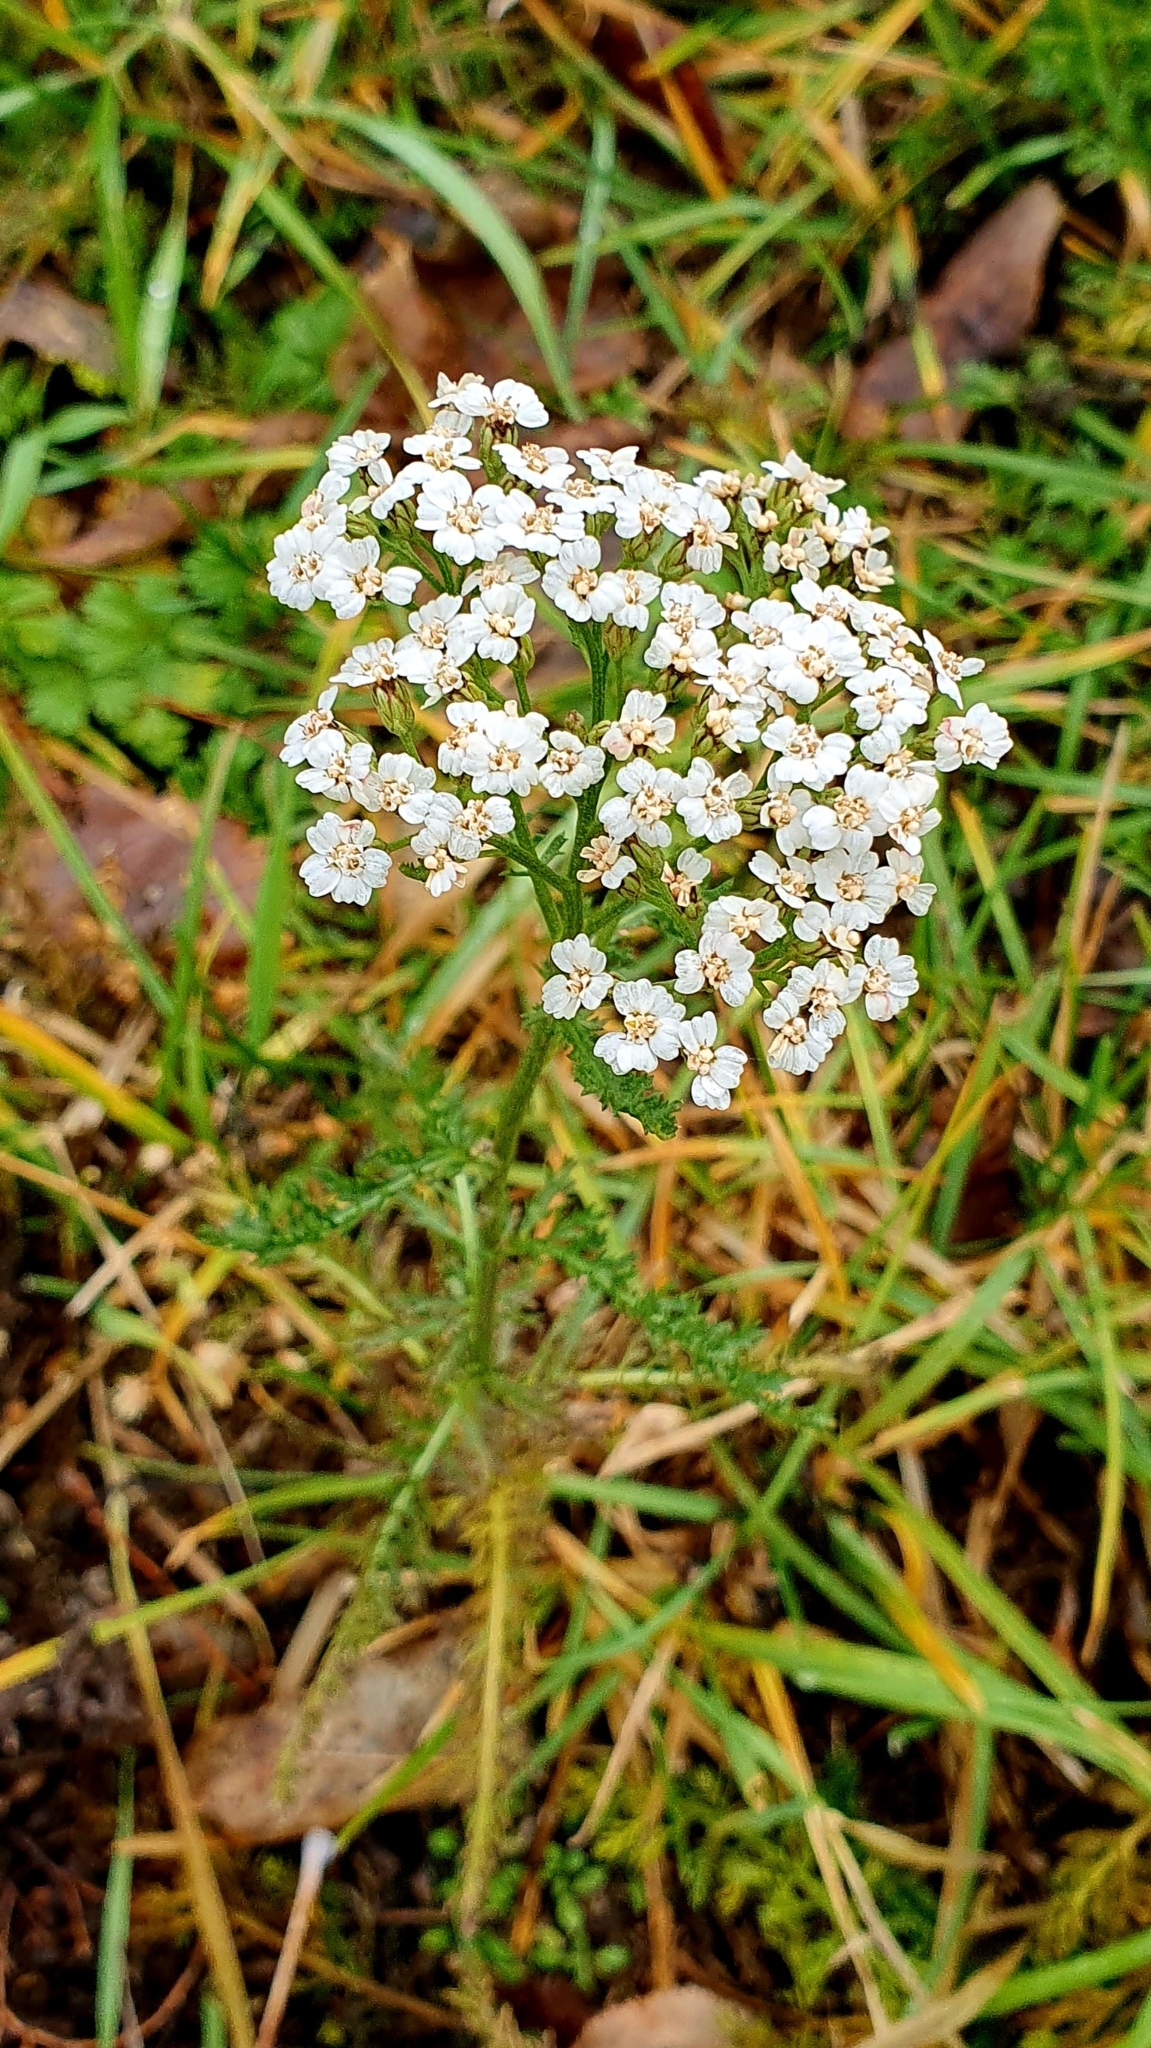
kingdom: Plantae
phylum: Tracheophyta
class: Magnoliopsida
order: Asterales
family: Asteraceae
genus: Achillea
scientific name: Achillea millefolium
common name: Yarrow
